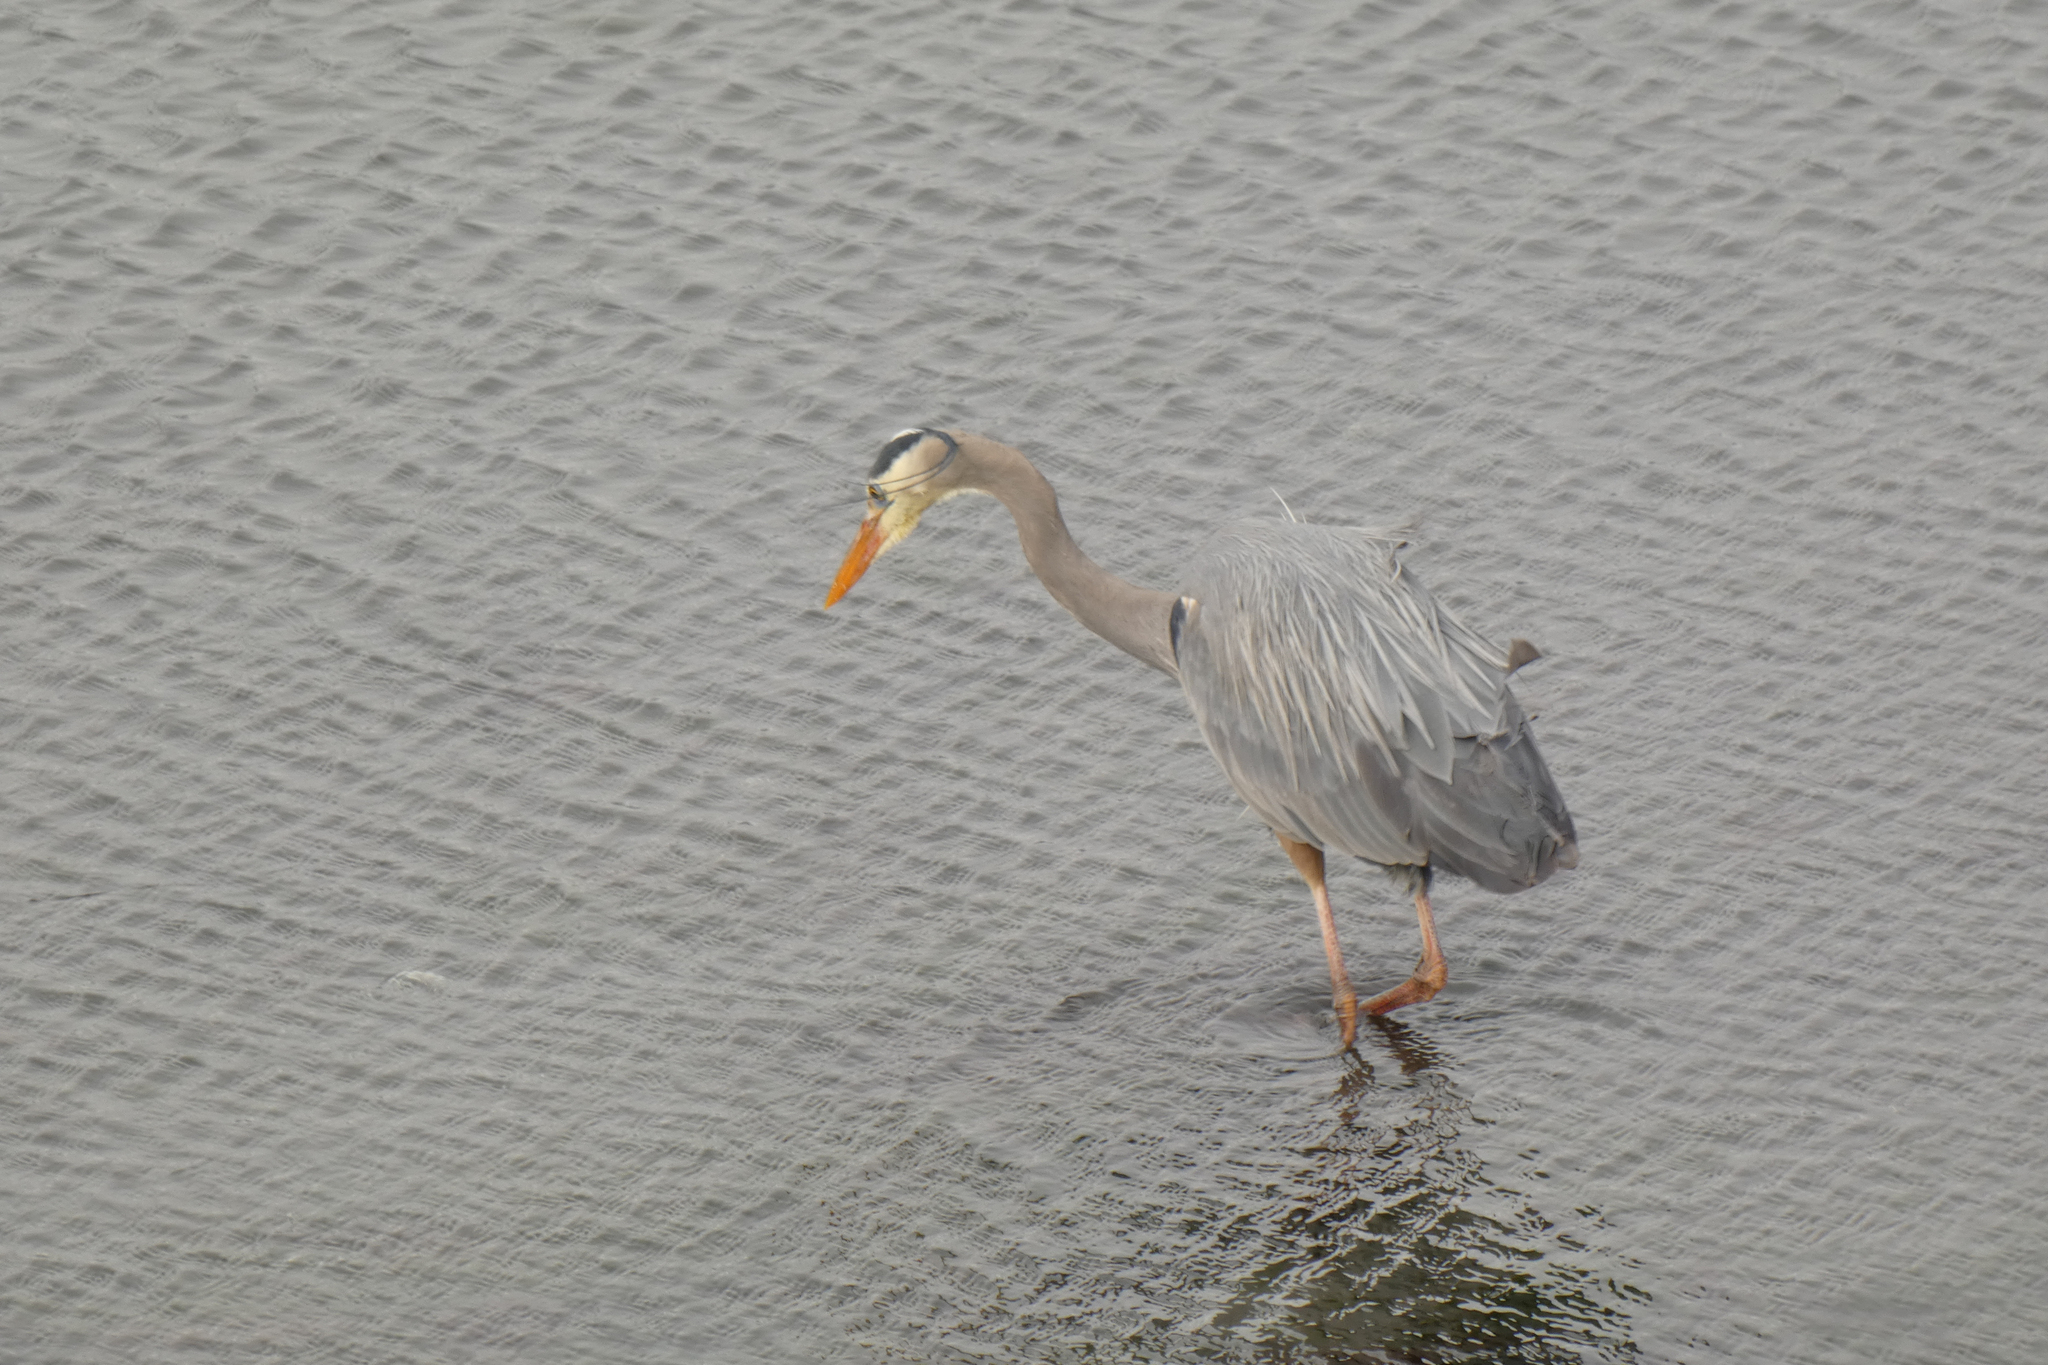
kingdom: Animalia
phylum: Chordata
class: Aves
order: Pelecaniformes
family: Ardeidae
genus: Ardea
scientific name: Ardea herodias
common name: Great blue heron
